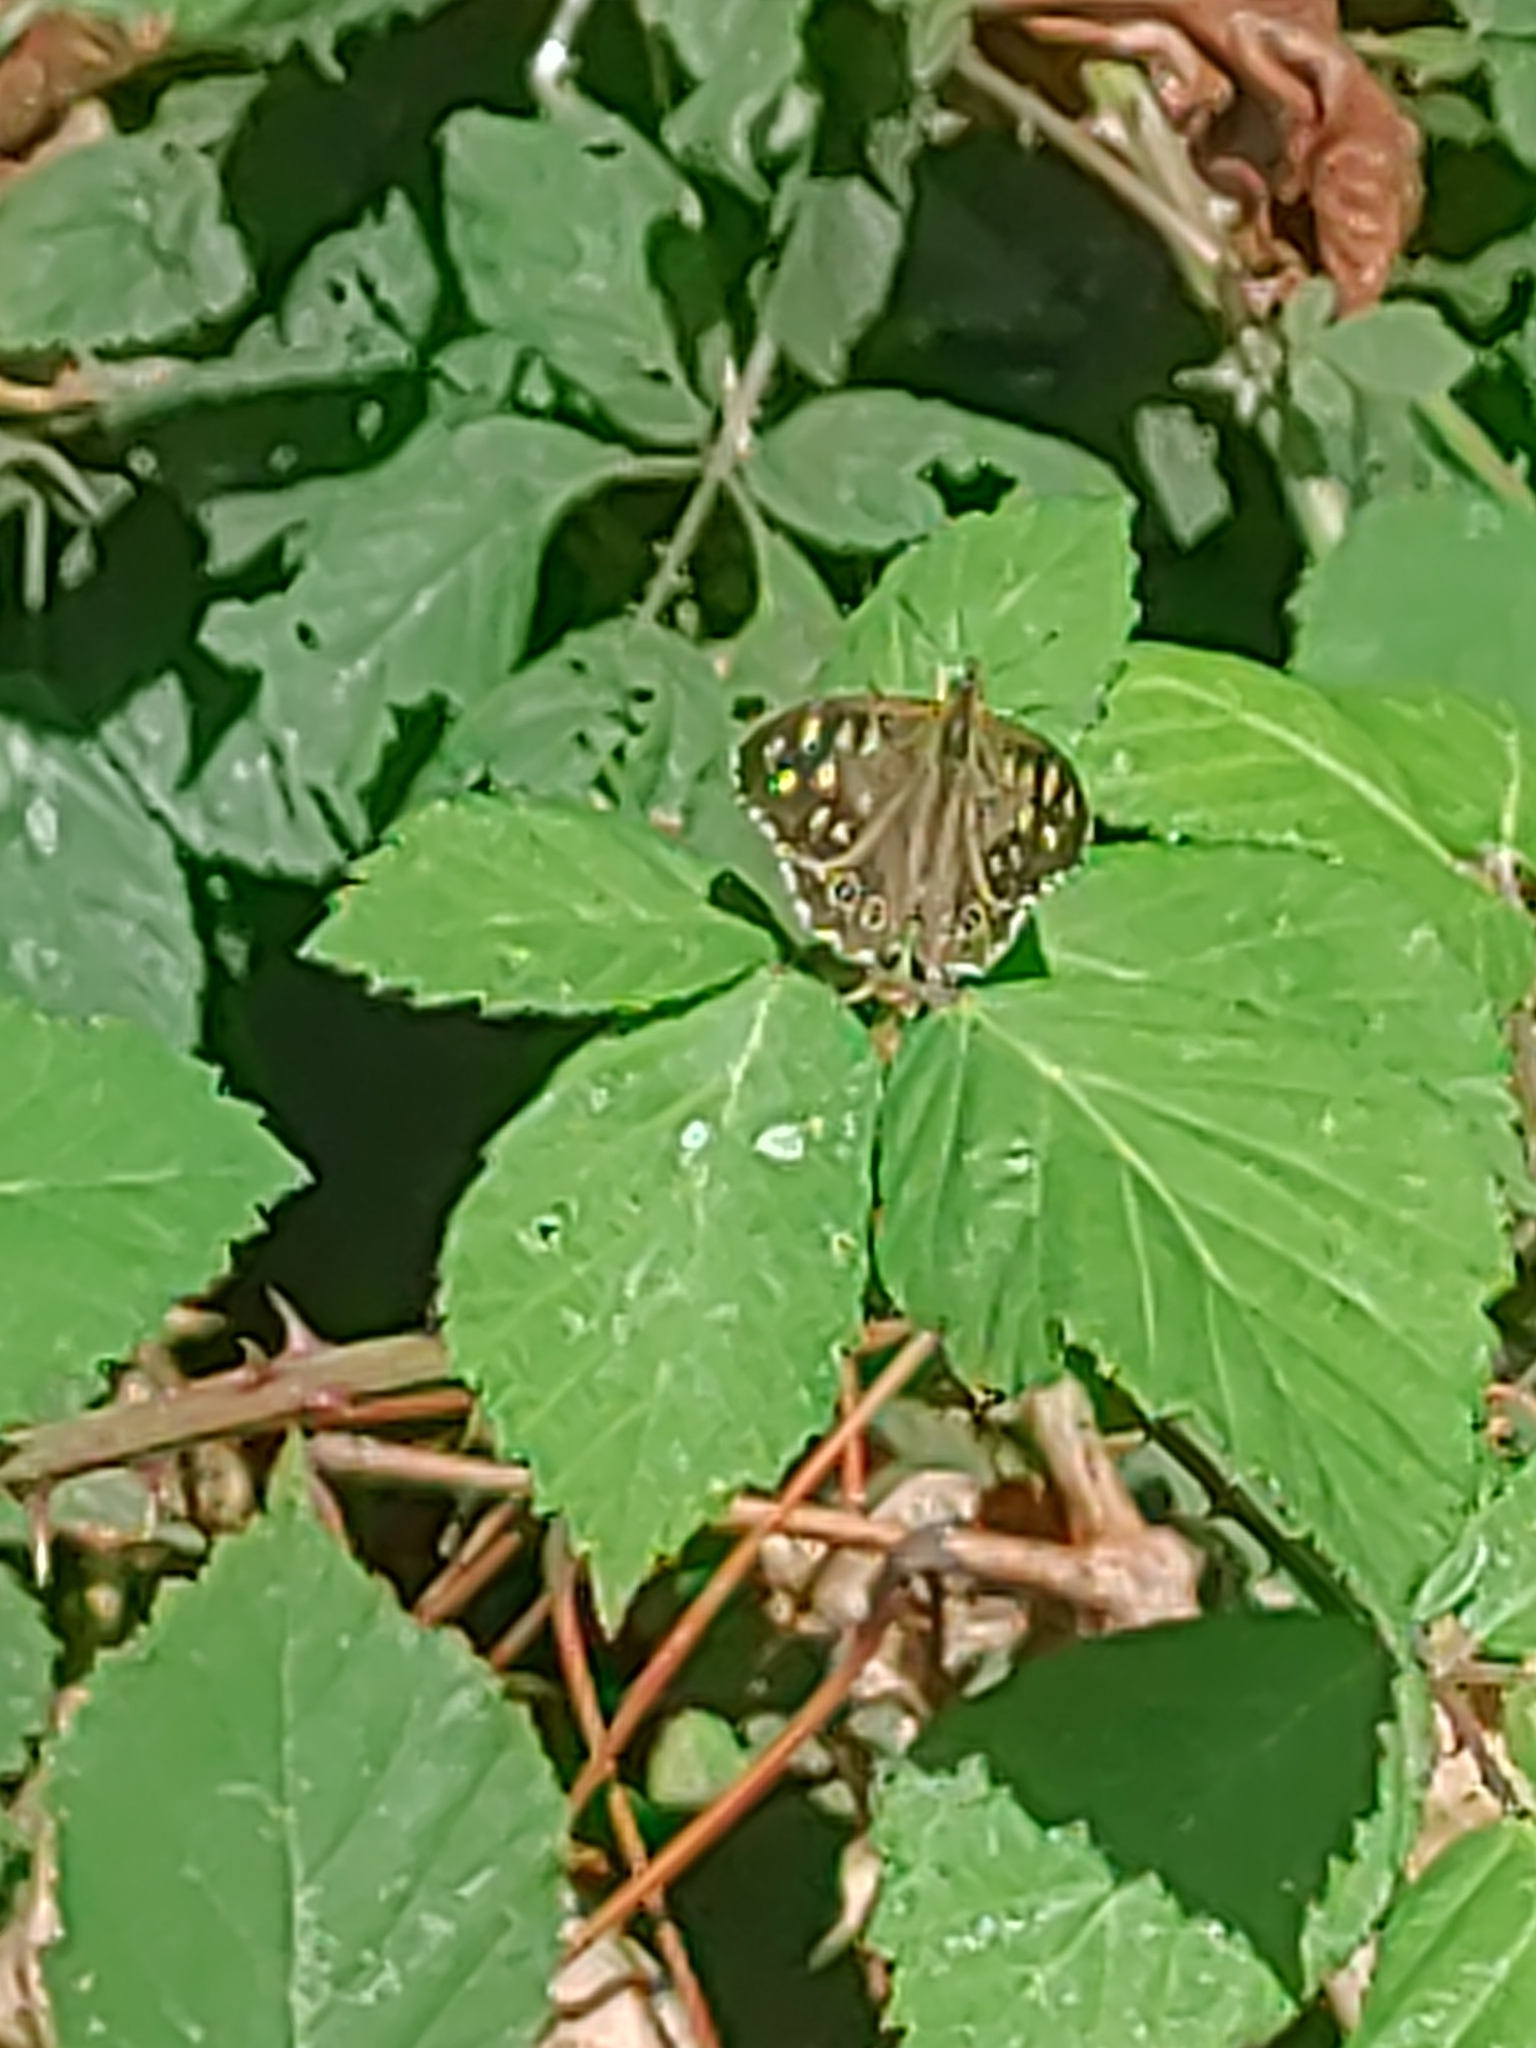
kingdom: Animalia
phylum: Arthropoda
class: Insecta
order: Lepidoptera
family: Nymphalidae
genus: Pararge
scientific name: Pararge aegeria
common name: Speckled wood
